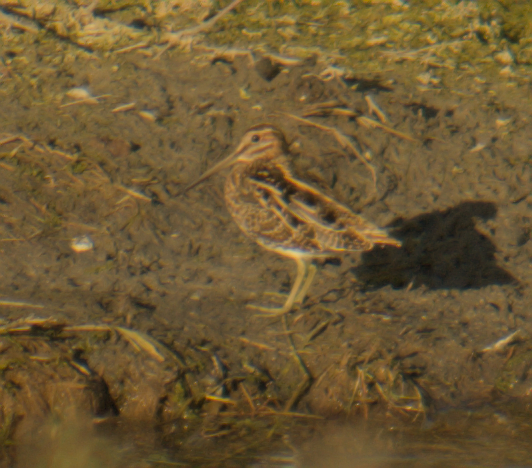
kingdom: Animalia
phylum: Chordata
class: Aves
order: Charadriiformes
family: Scolopacidae
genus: Gallinago
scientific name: Gallinago delicata
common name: Wilson's snipe
